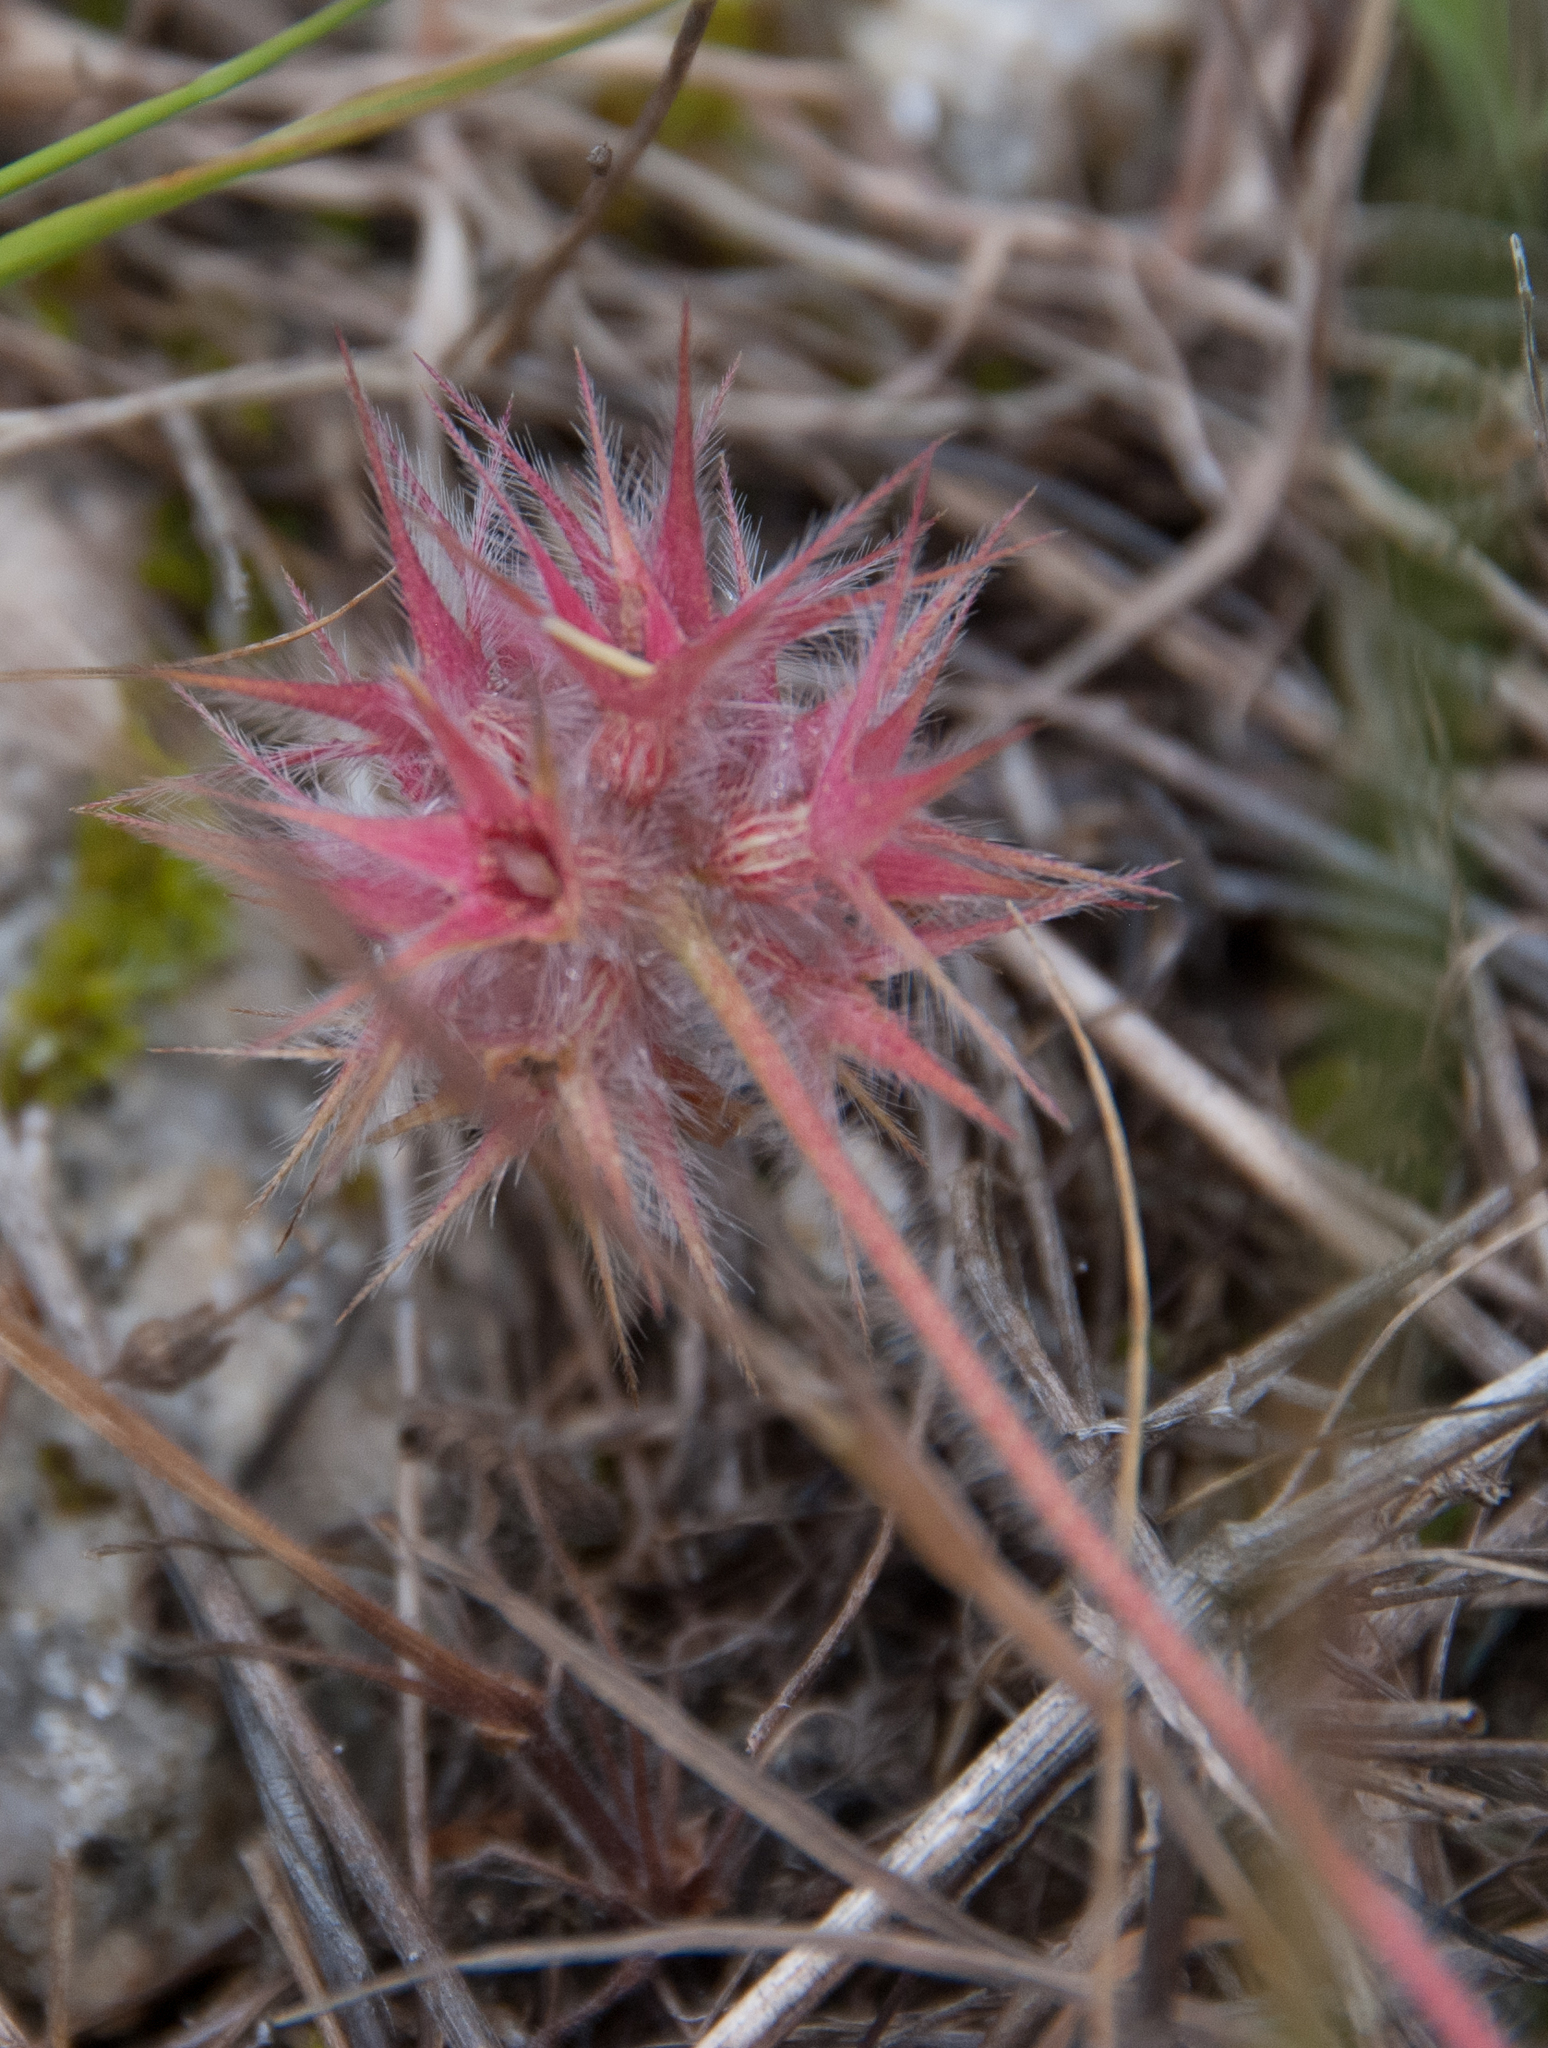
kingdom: Plantae
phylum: Tracheophyta
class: Magnoliopsida
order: Fabales
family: Fabaceae
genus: Trifolium
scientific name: Trifolium stellatum
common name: Starry clover
